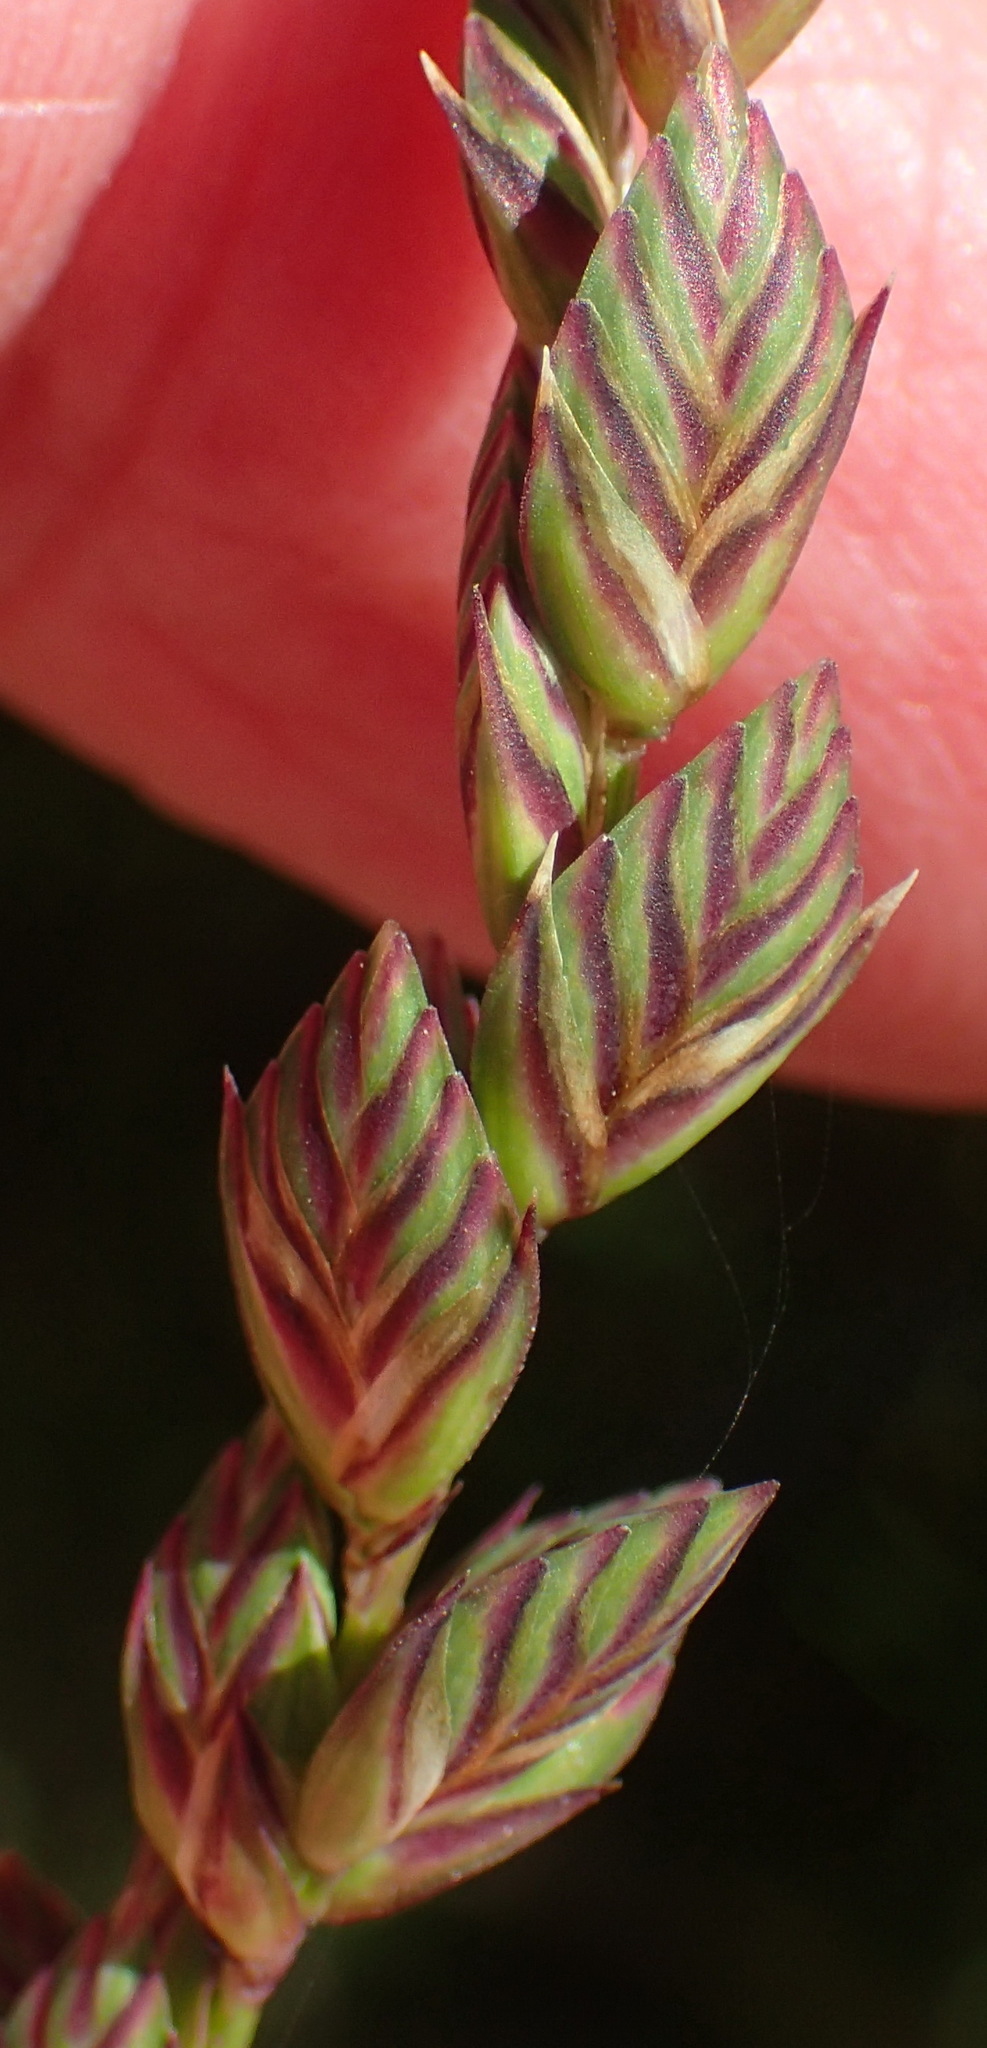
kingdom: Plantae
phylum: Tracheophyta
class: Liliopsida
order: Poales
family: Poaceae
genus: Tribolium
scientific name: Tribolium uniolae
